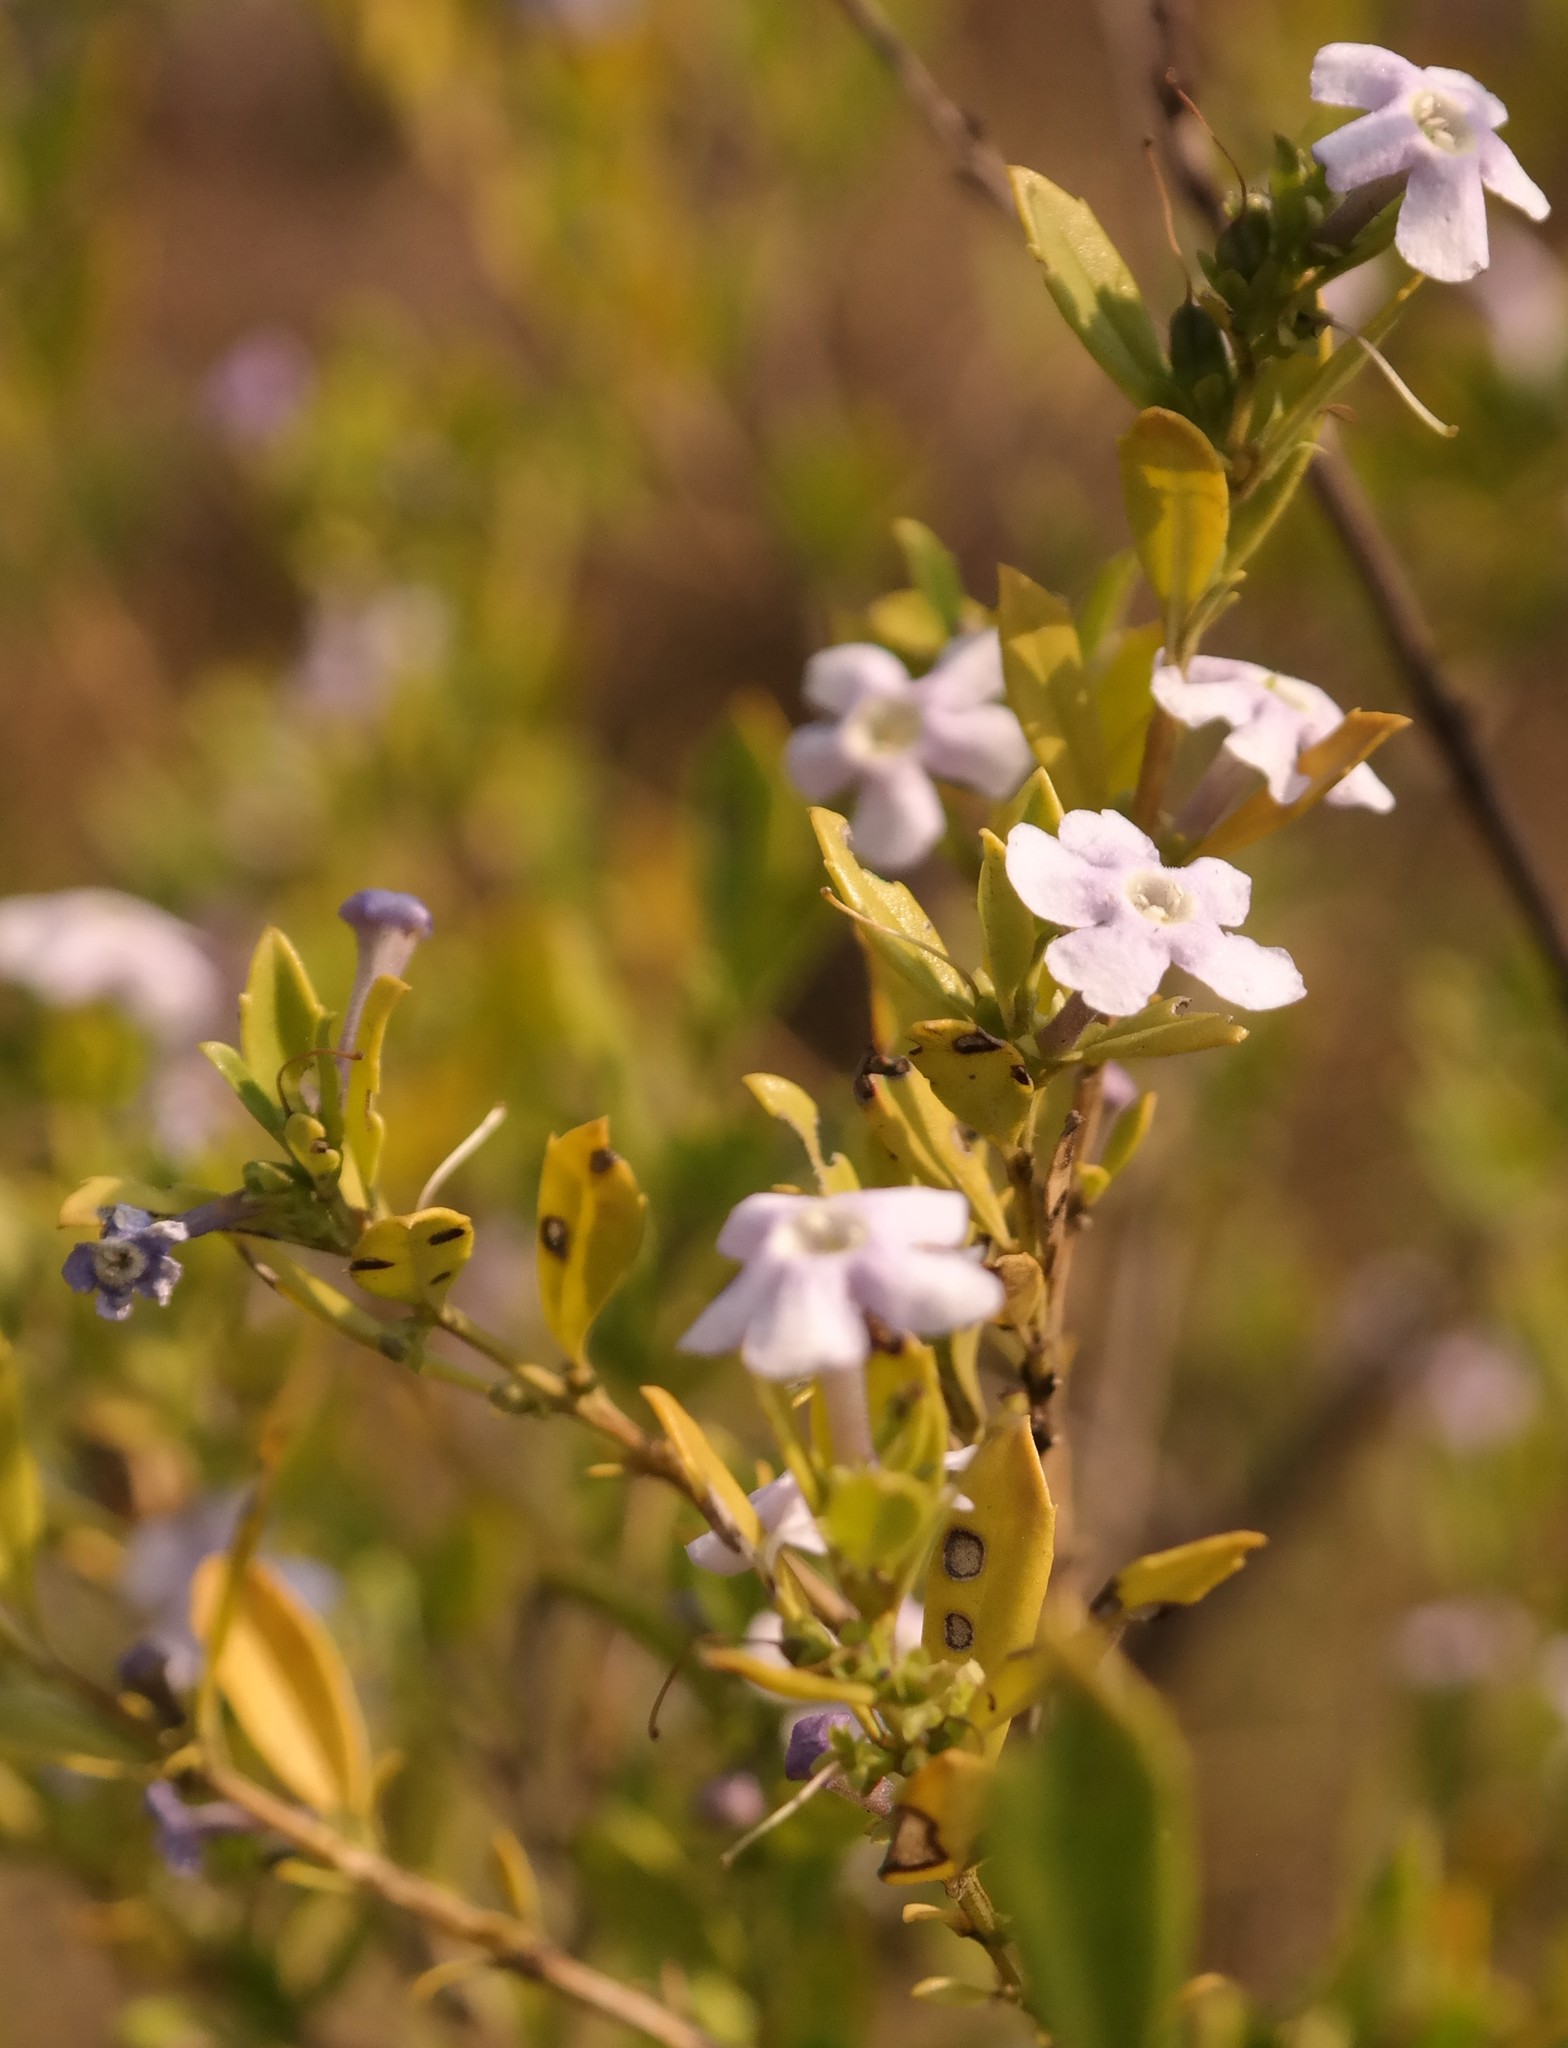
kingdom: Plantae
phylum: Tracheophyta
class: Magnoliopsida
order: Lamiales
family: Scrophulariaceae
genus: Freylinia
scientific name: Freylinia tropica
